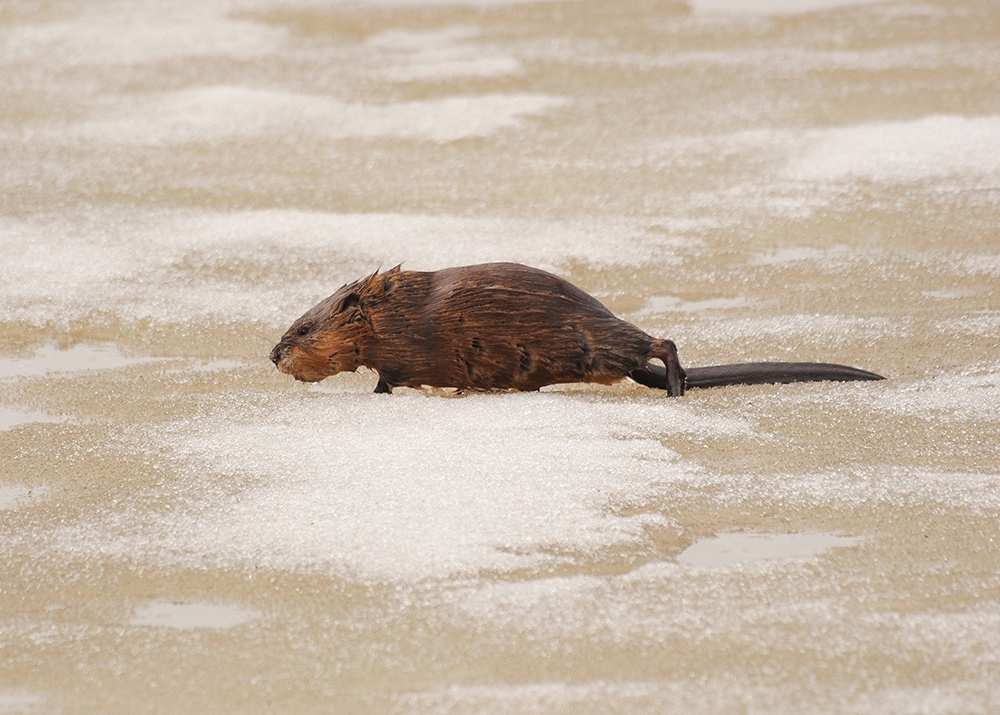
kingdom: Animalia
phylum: Chordata
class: Mammalia
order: Rodentia
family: Cricetidae
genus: Ondatra
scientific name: Ondatra zibethicus
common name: Muskrat
